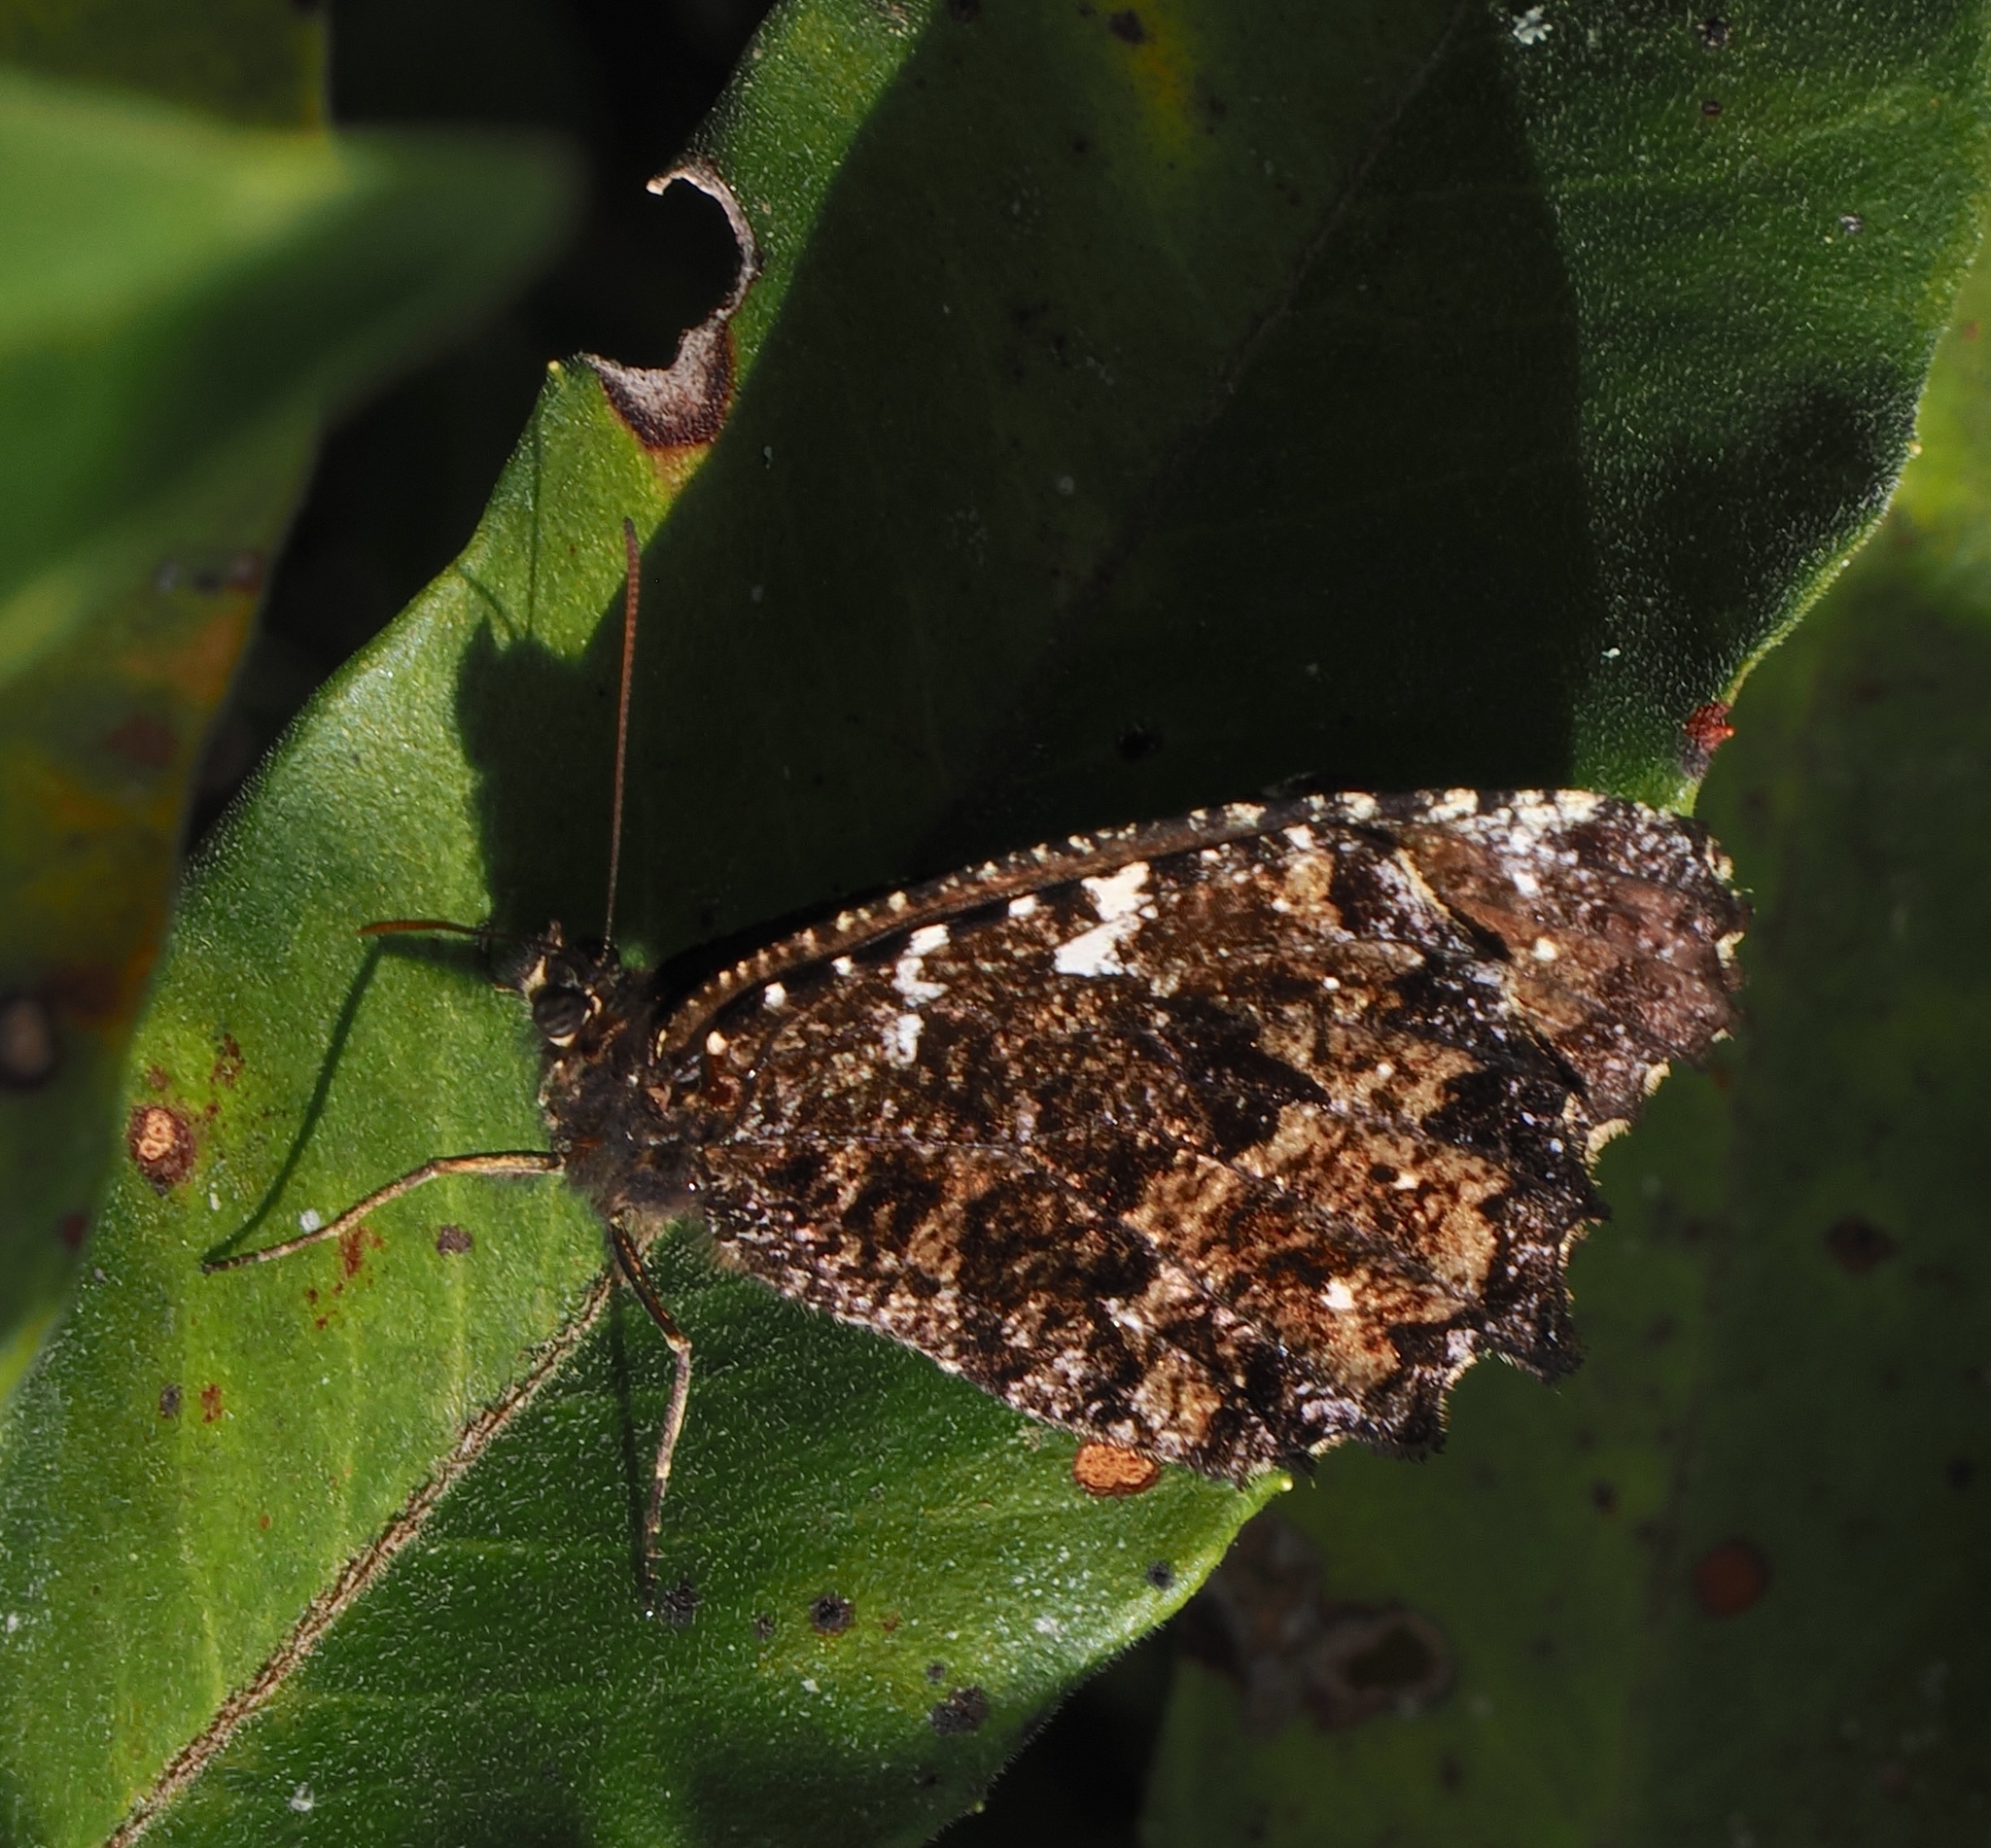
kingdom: Animalia
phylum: Arthropoda
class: Insecta
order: Lepidoptera
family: Nymphalidae
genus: Praepedaliodes
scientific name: Praepedaliodes amussis
